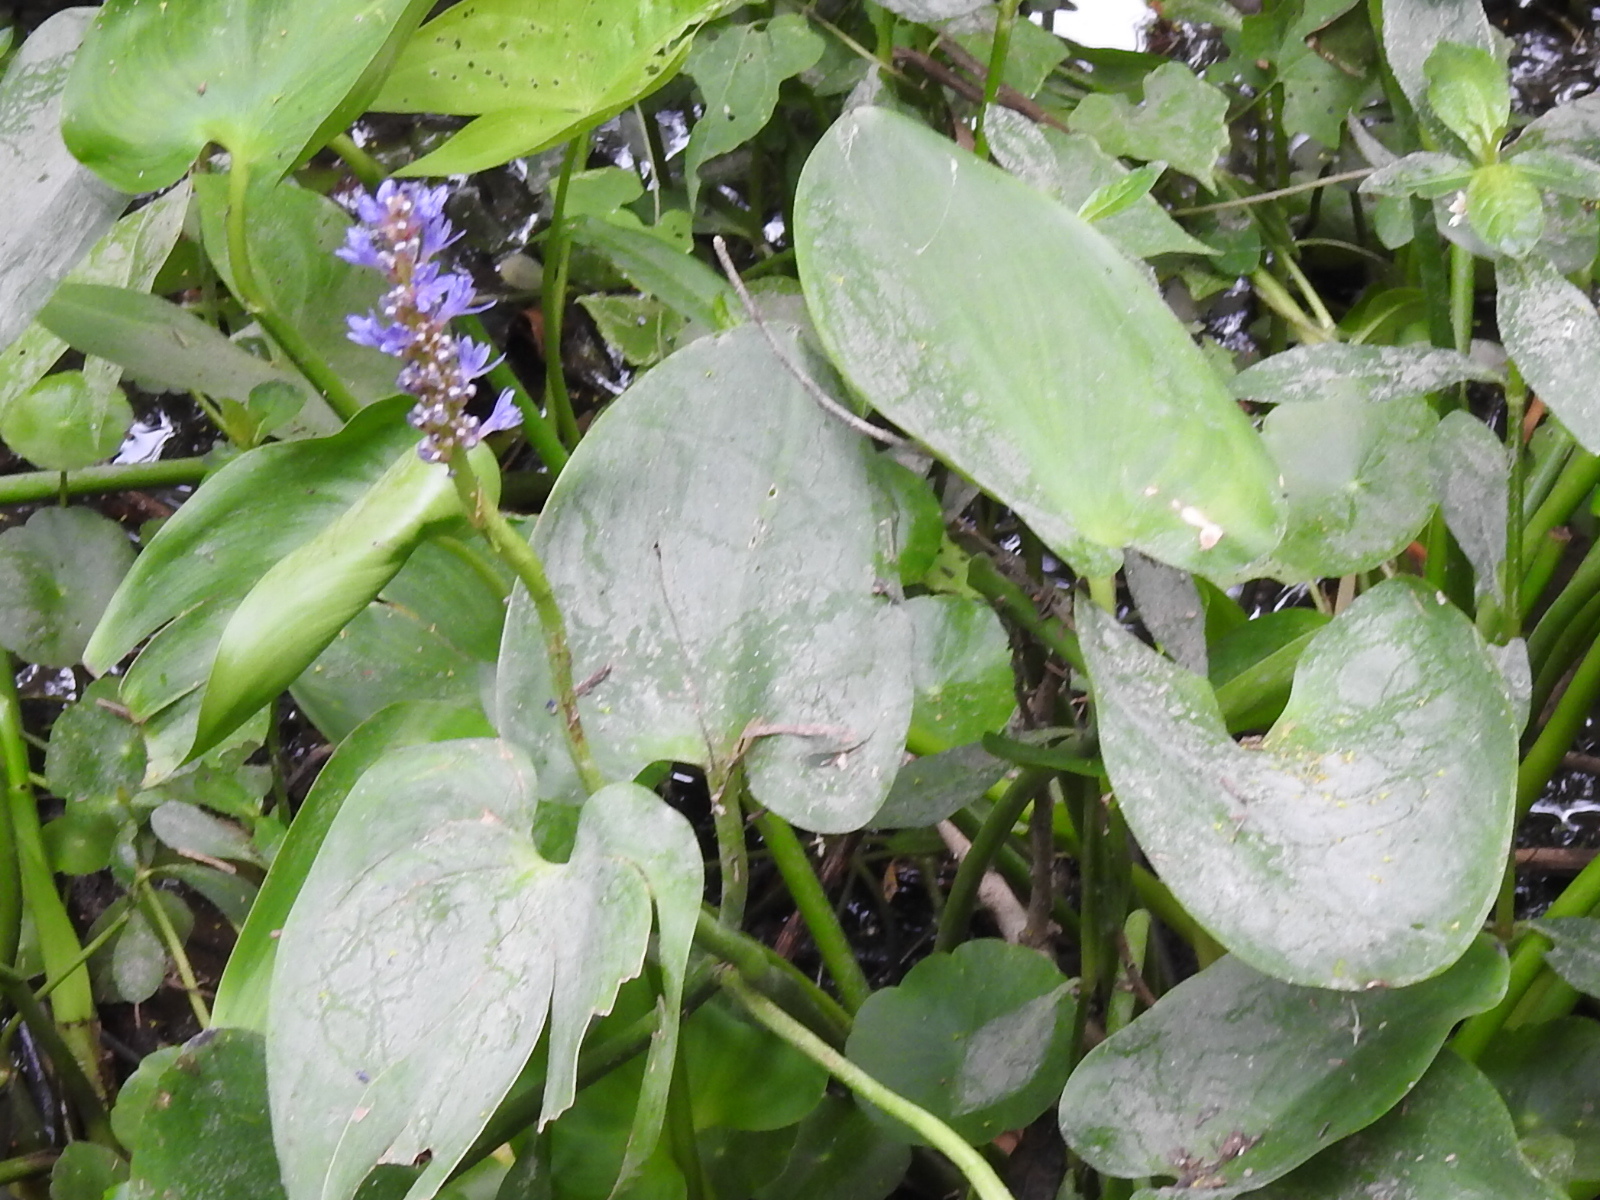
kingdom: Plantae
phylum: Tracheophyta
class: Liliopsida
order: Commelinales
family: Pontederiaceae
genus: Pontederia
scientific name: Pontederia cordata
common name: Pickerelweed
